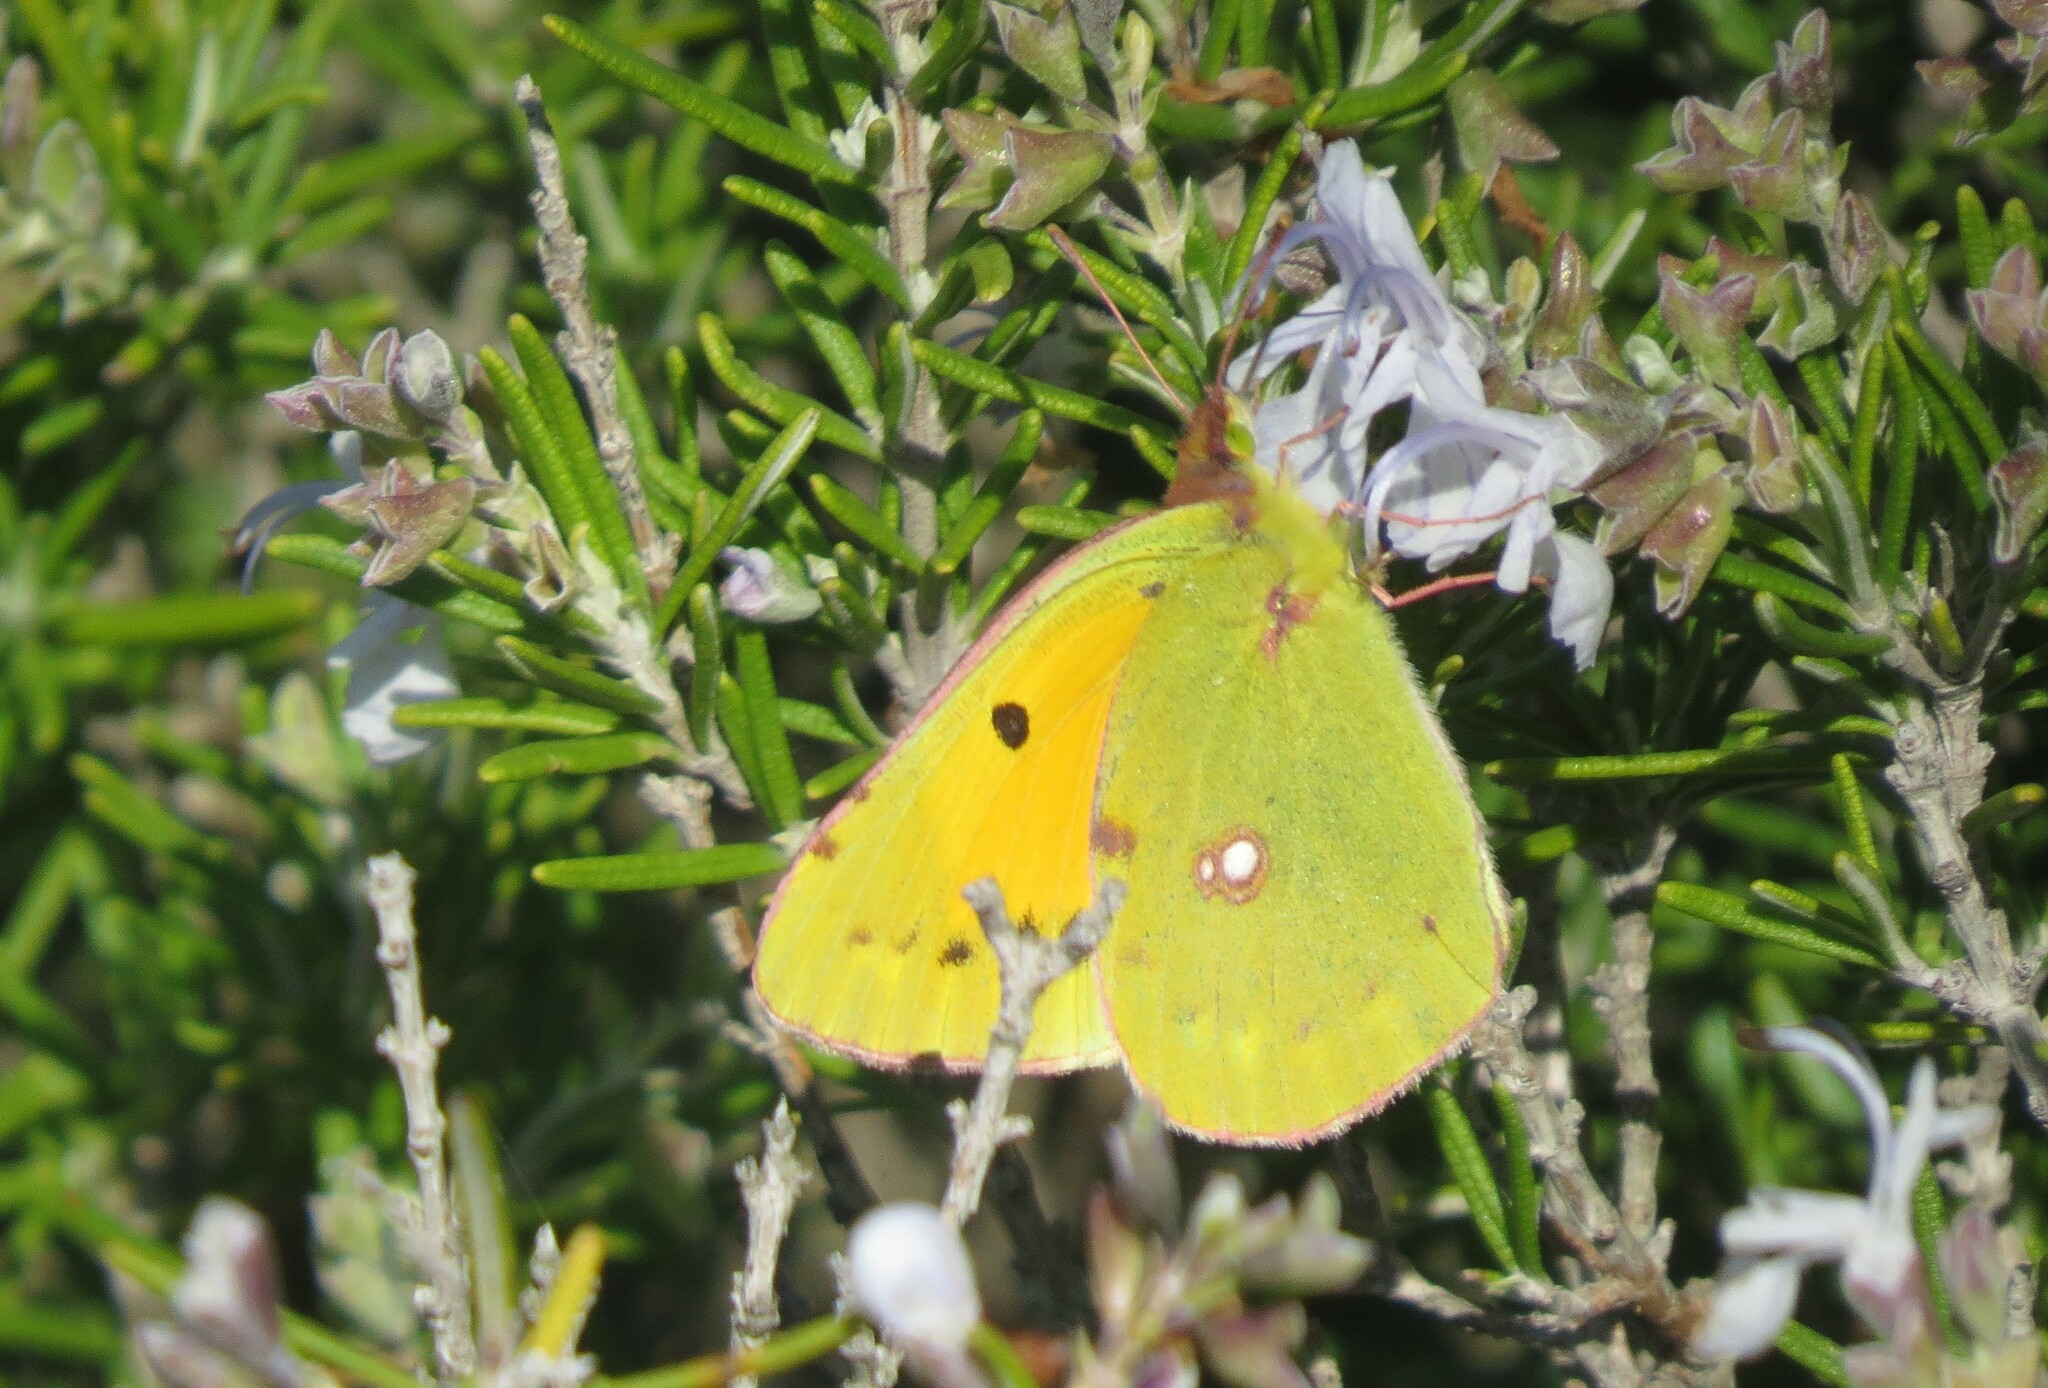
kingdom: Animalia
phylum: Arthropoda
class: Insecta
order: Lepidoptera
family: Pieridae
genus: Colias
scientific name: Colias croceus
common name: Clouded yellow
